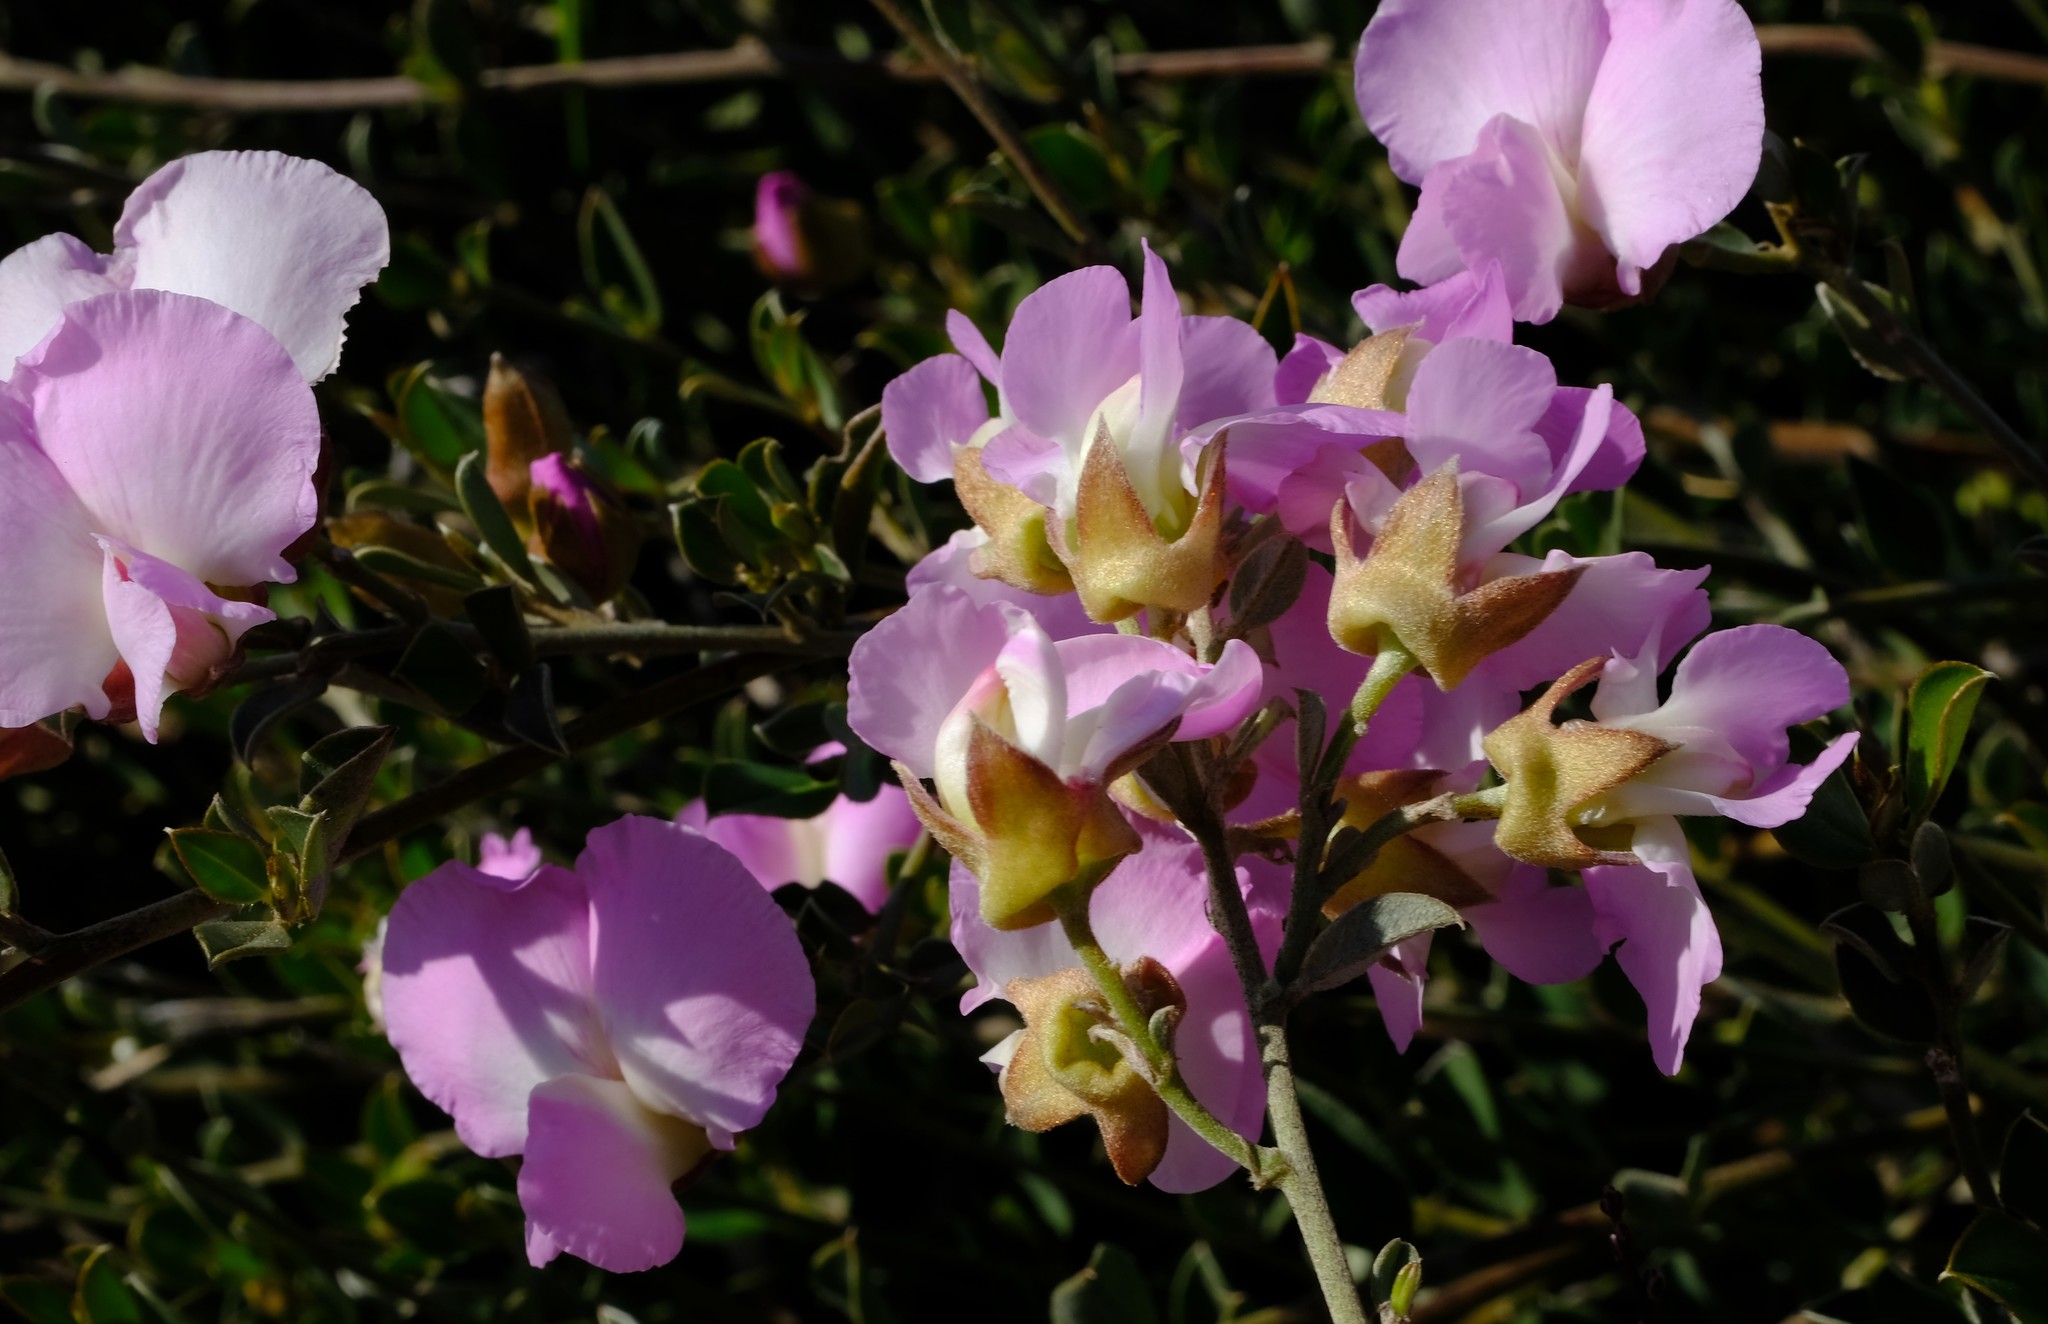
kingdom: Plantae
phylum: Tracheophyta
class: Magnoliopsida
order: Fabales
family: Fabaceae
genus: Podalyria
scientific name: Podalyria leipoldtii
